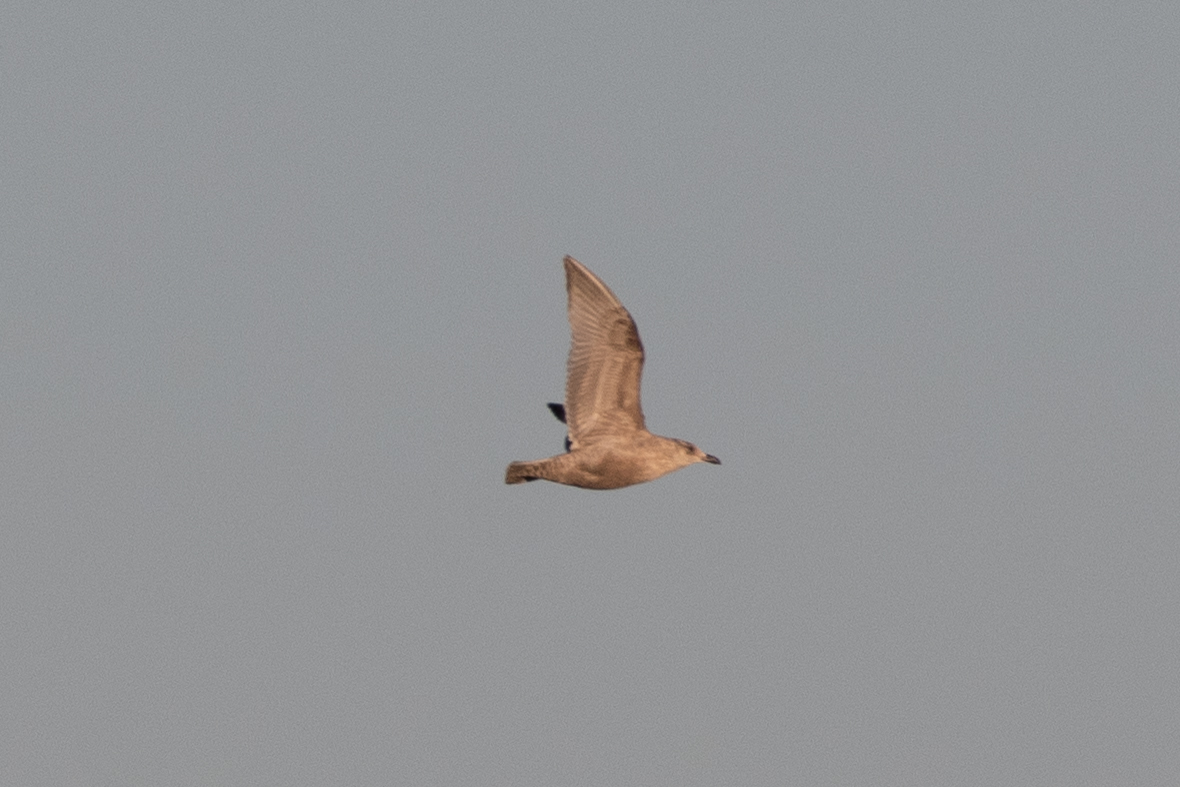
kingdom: Animalia
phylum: Chordata
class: Aves
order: Charadriiformes
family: Laridae
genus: Larus
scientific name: Larus argentatus
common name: Herring gull
